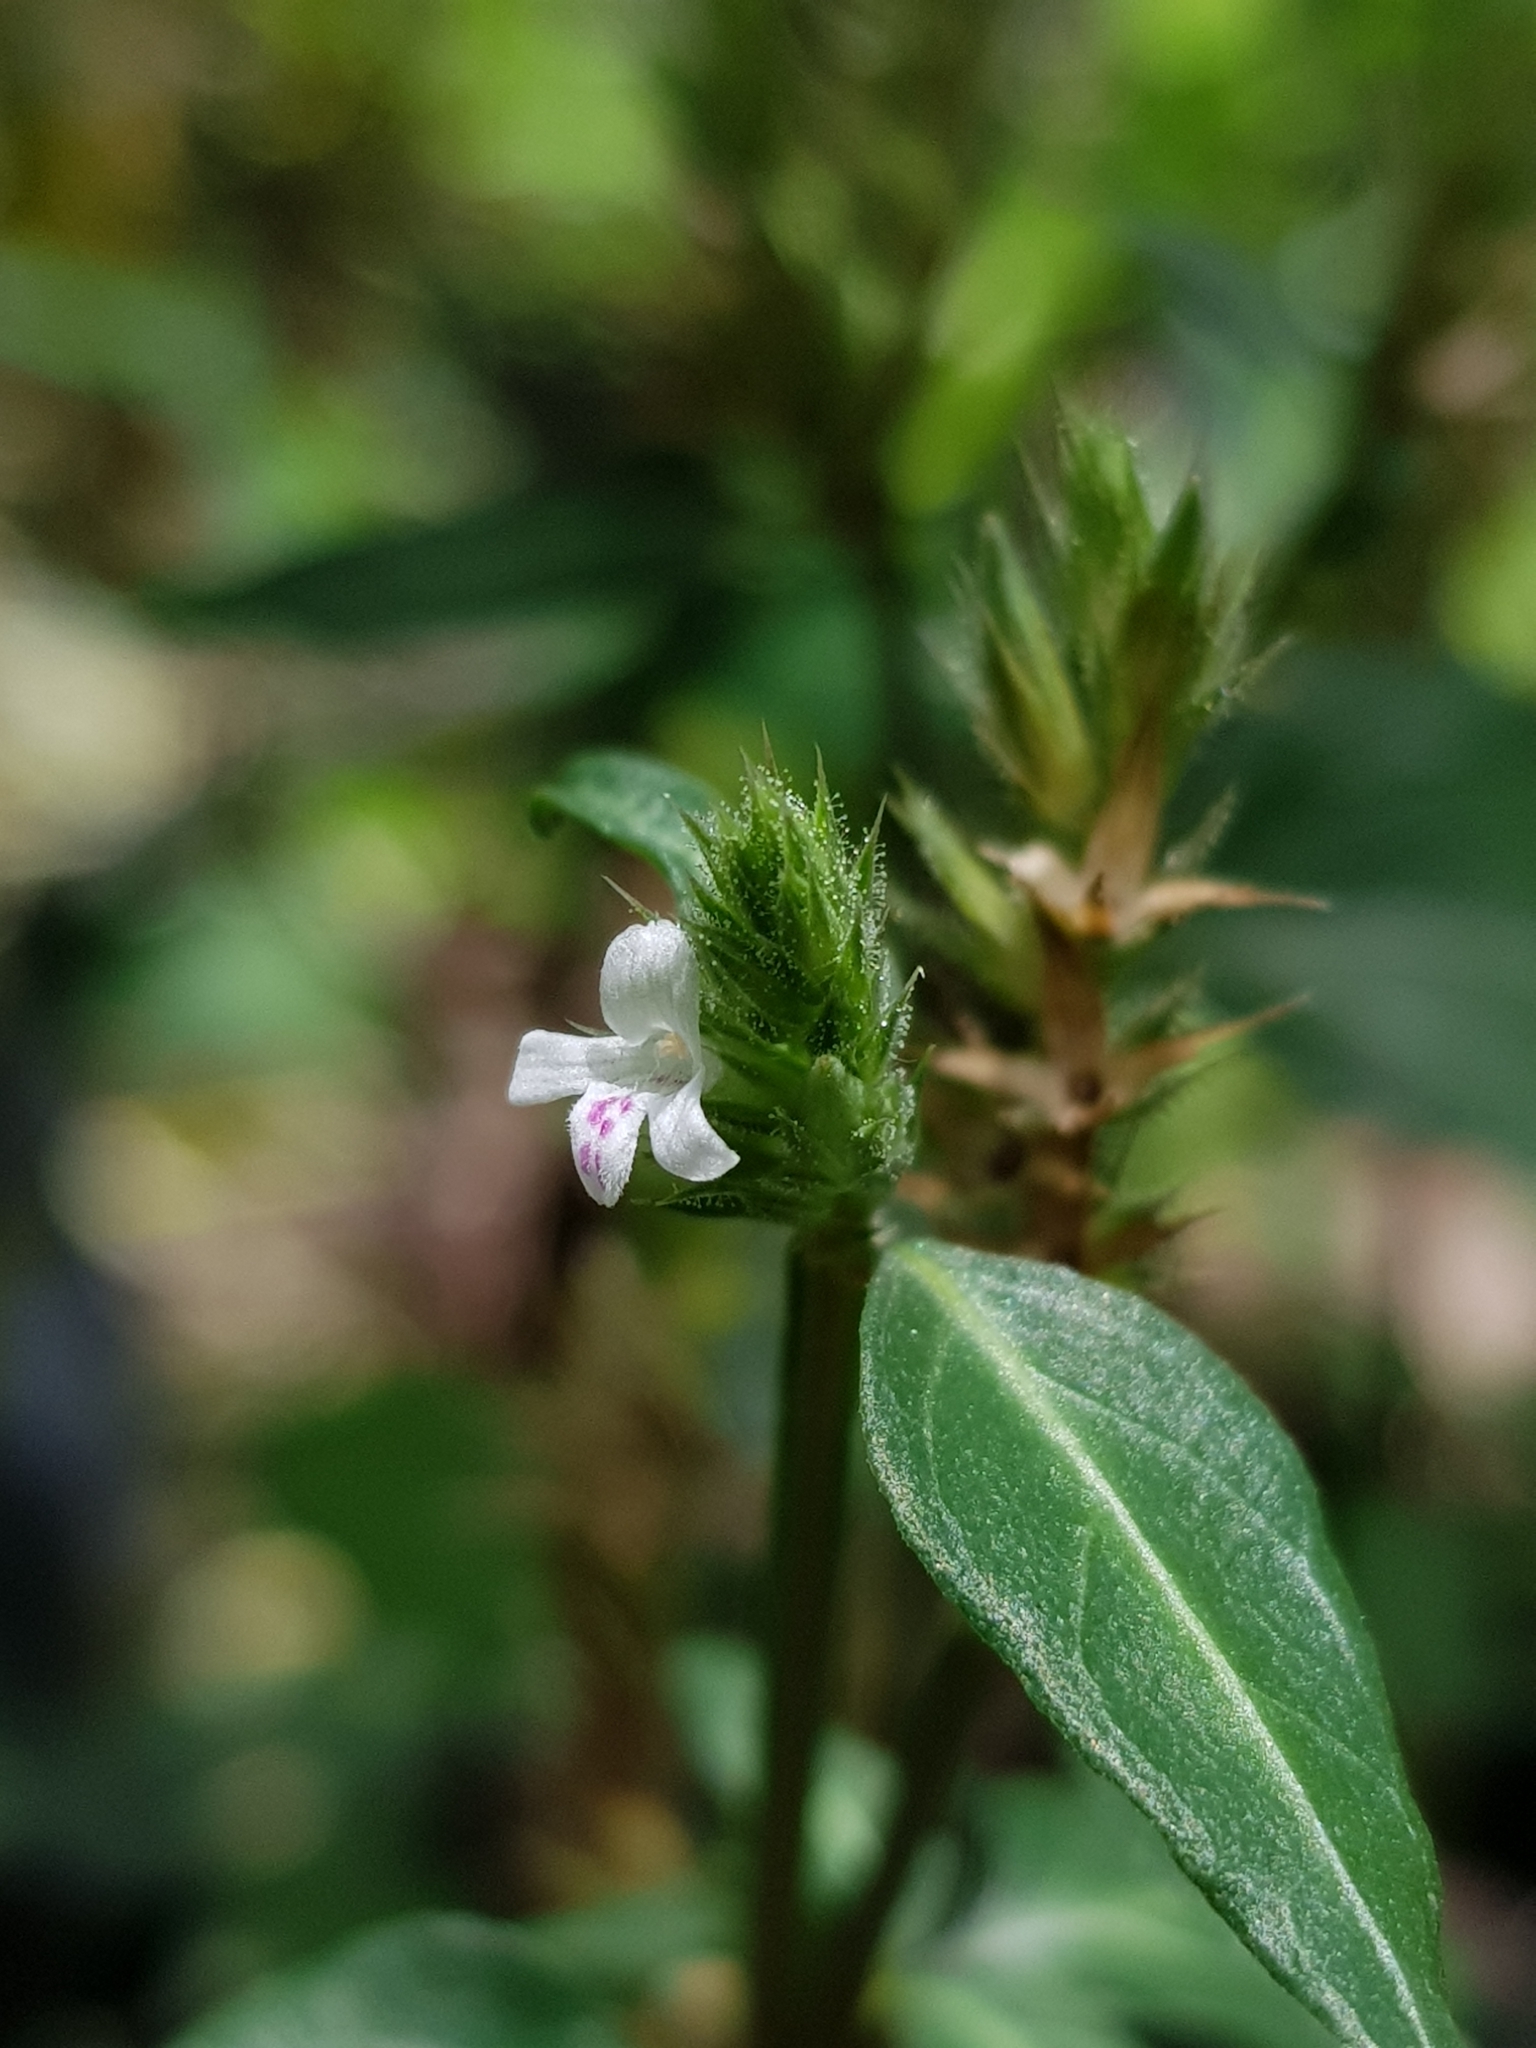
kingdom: Plantae
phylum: Tracheophyta
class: Magnoliopsida
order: Lamiales
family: Acanthaceae
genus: Lepidagathis
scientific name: Lepidagathis incurva
